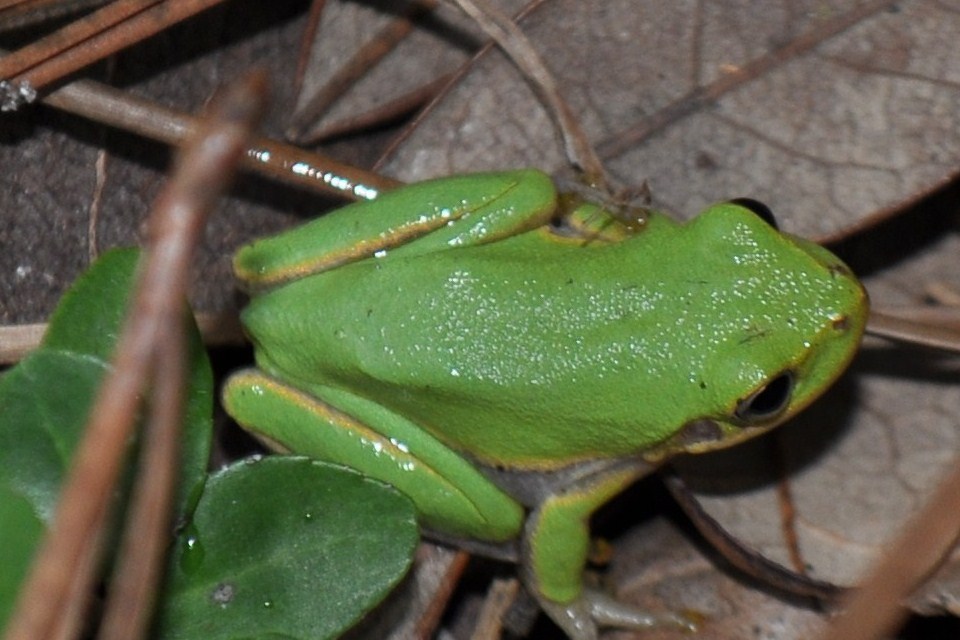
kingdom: Animalia
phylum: Chordata
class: Amphibia
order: Anura
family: Hylidae
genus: Dryophytes
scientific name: Dryophytes squirellus
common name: Squirrel treefrog
